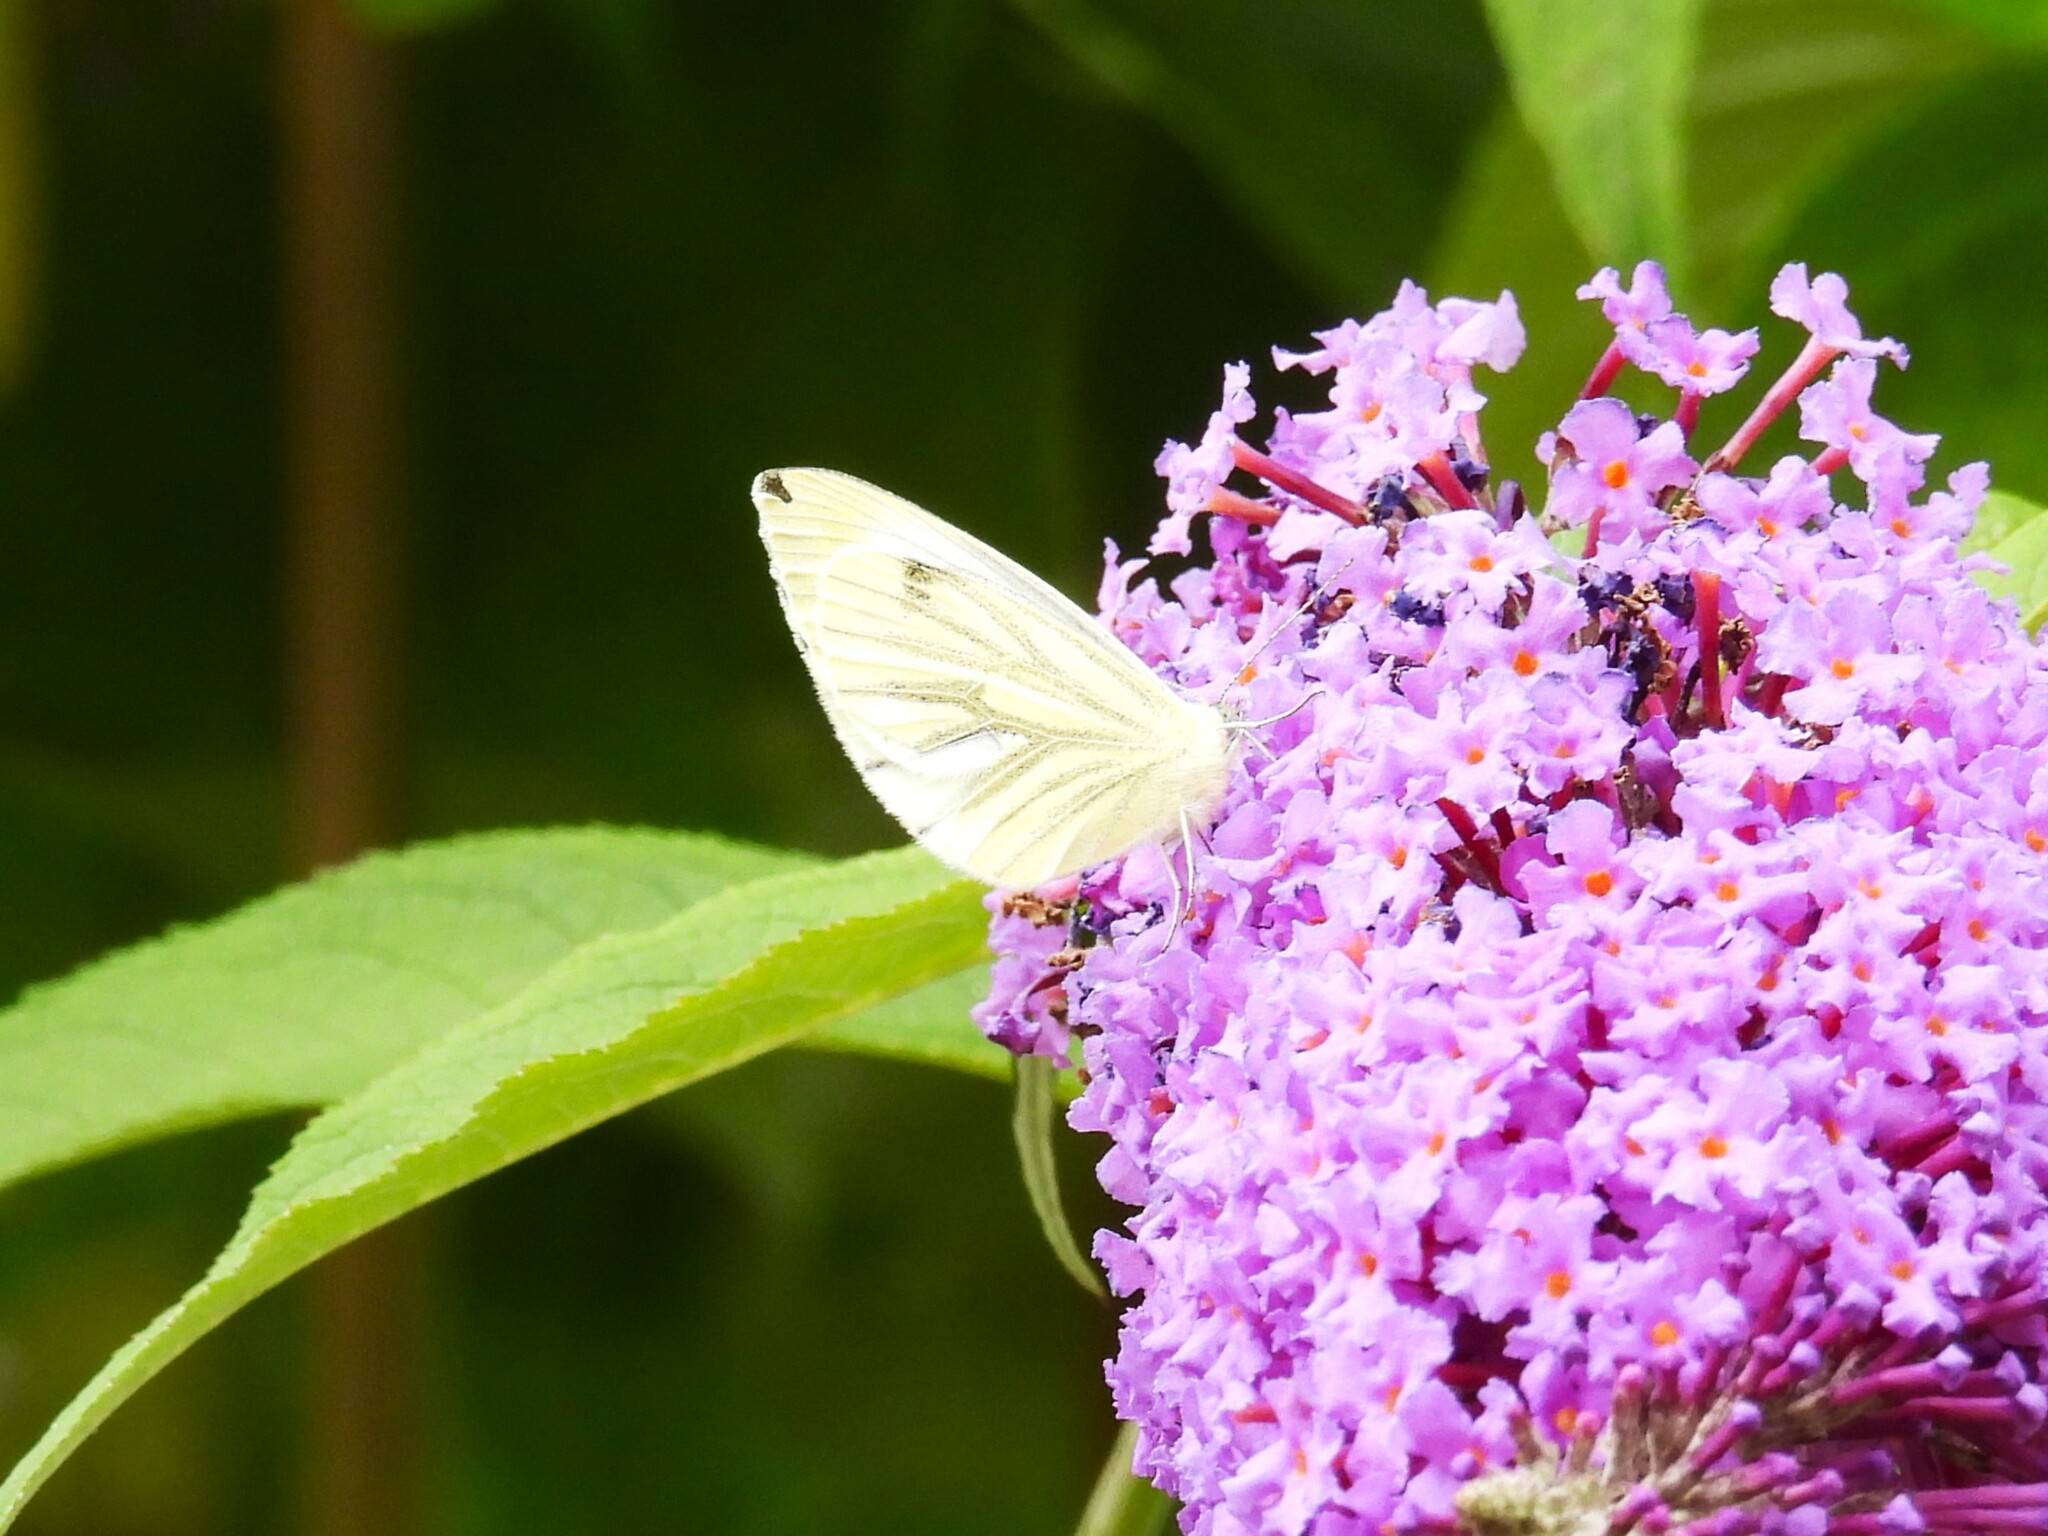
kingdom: Animalia
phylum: Arthropoda
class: Insecta
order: Lepidoptera
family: Pieridae
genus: Pieris
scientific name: Pieris napi
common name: Green-veined white
